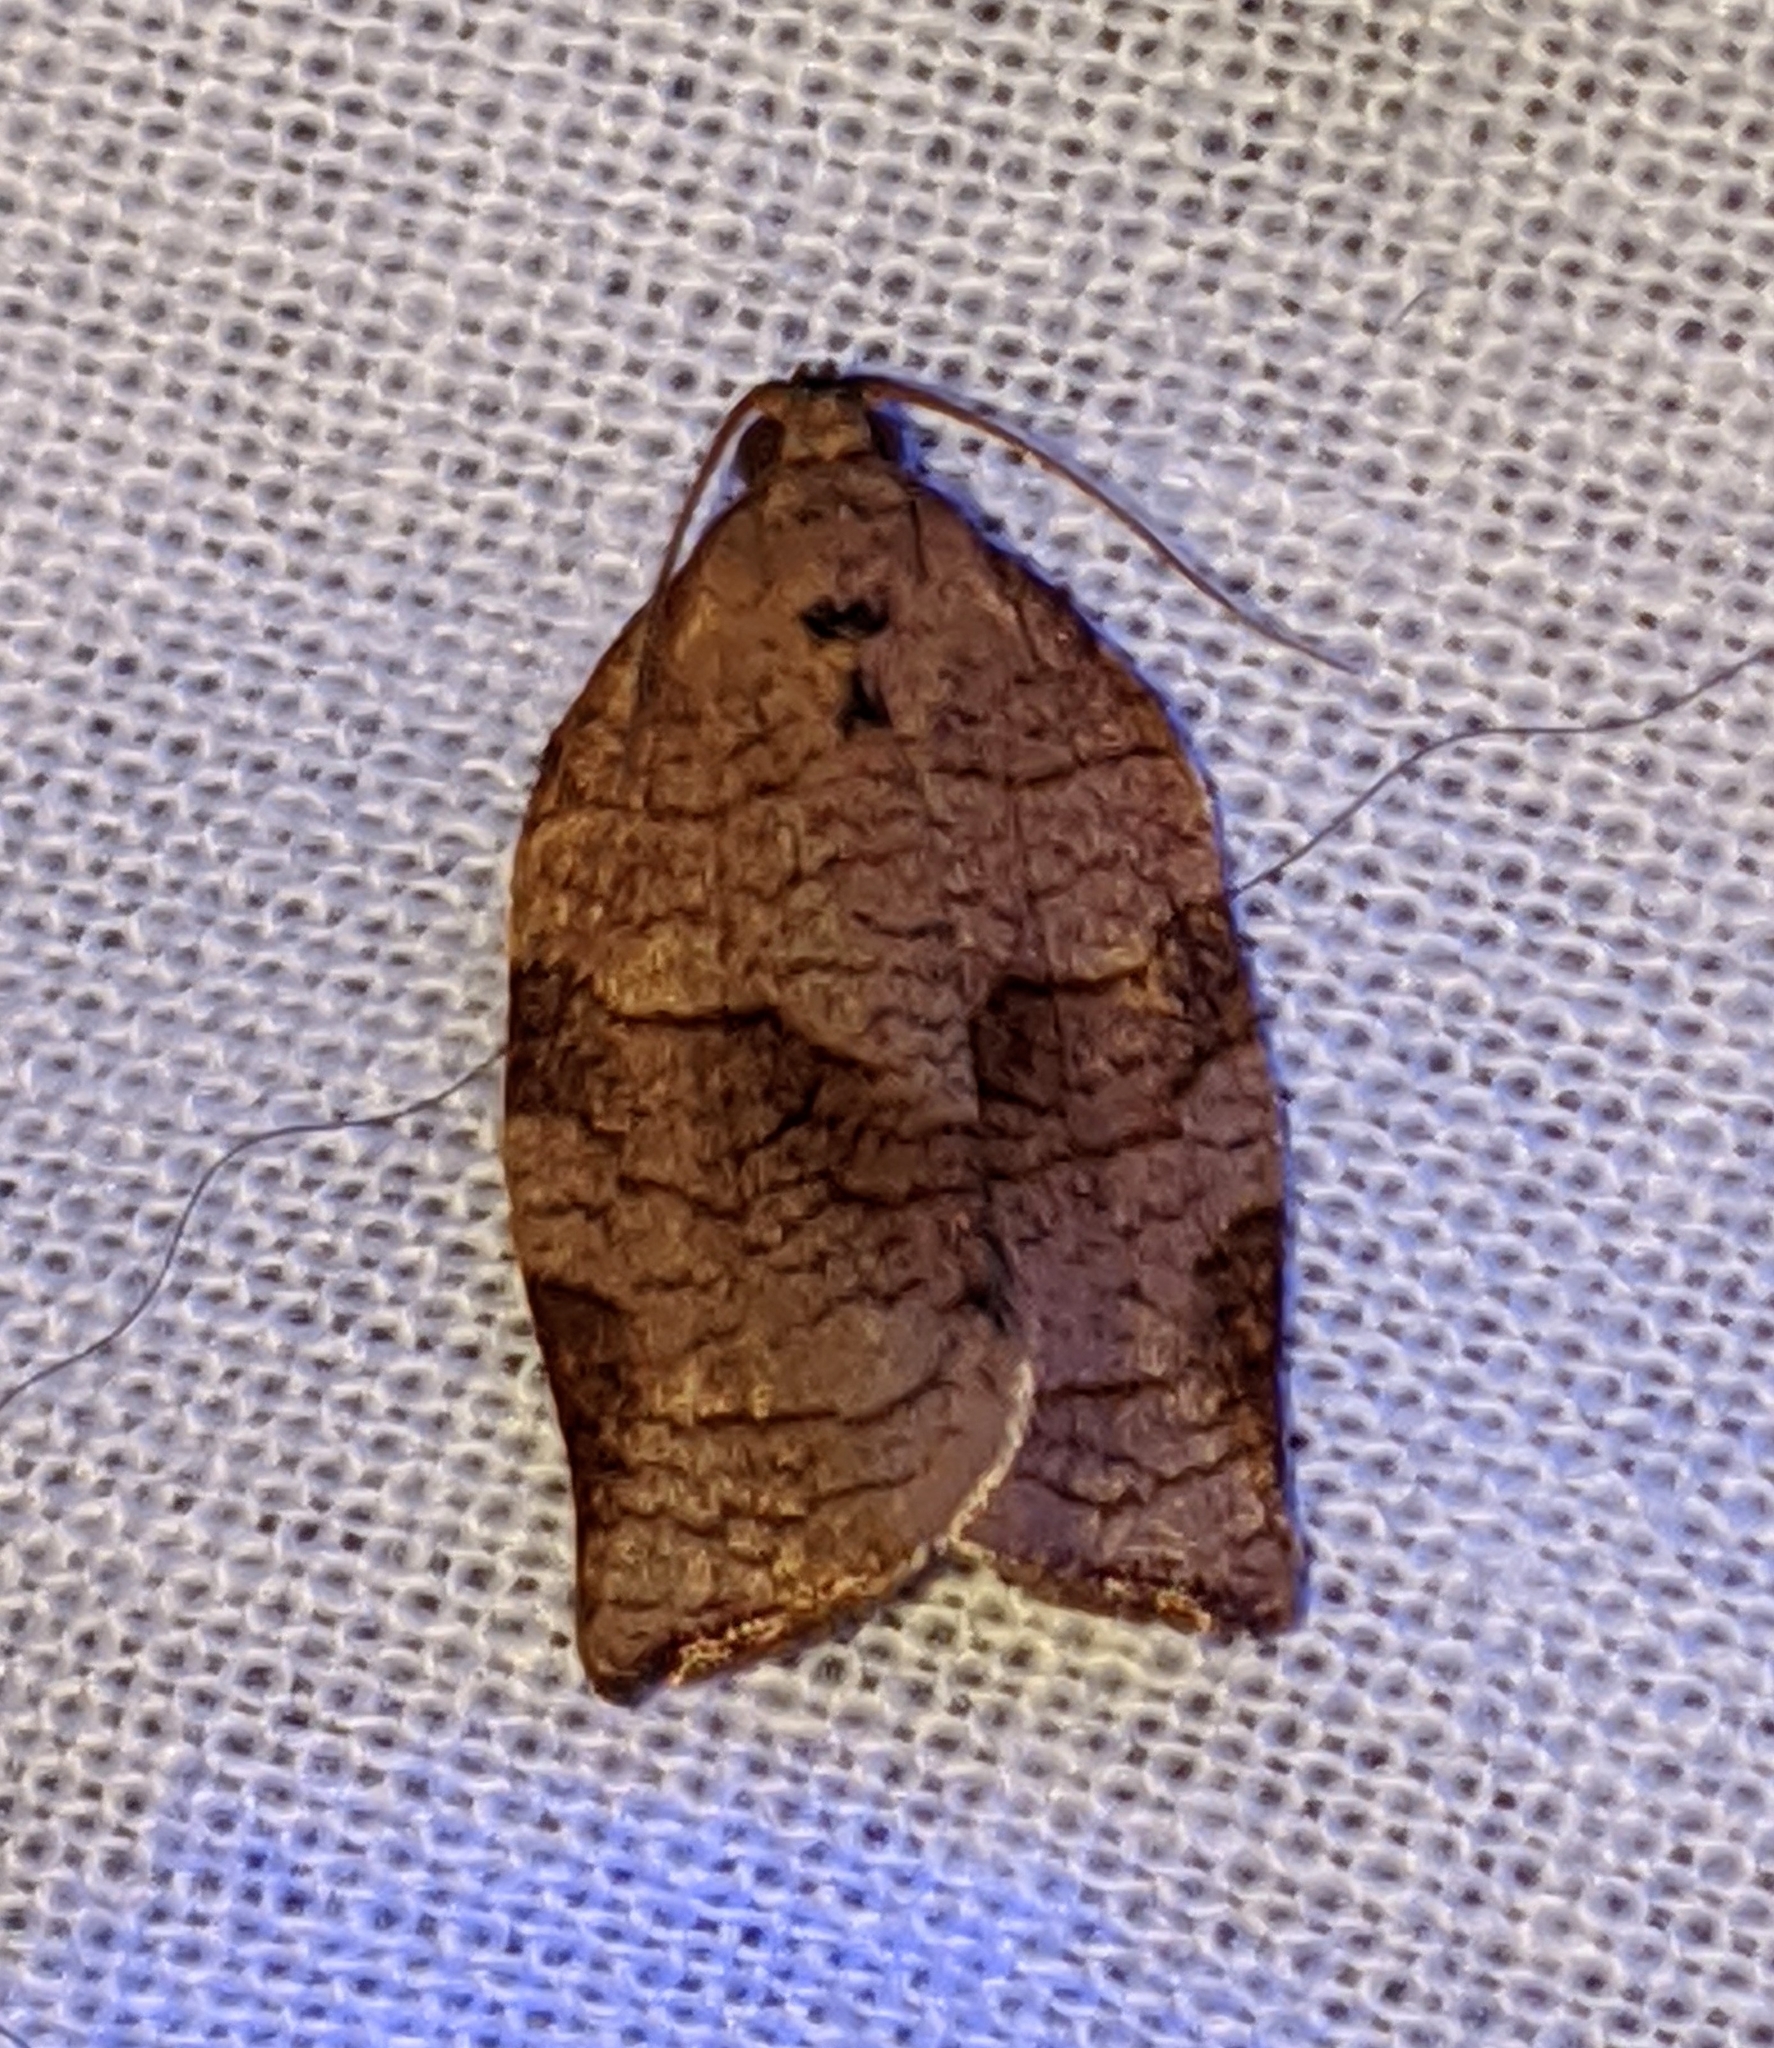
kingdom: Animalia
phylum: Arthropoda
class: Insecta
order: Lepidoptera
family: Tortricidae
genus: Choristoneura
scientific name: Choristoneura rosaceana
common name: Oblique-banded leafroller moth
